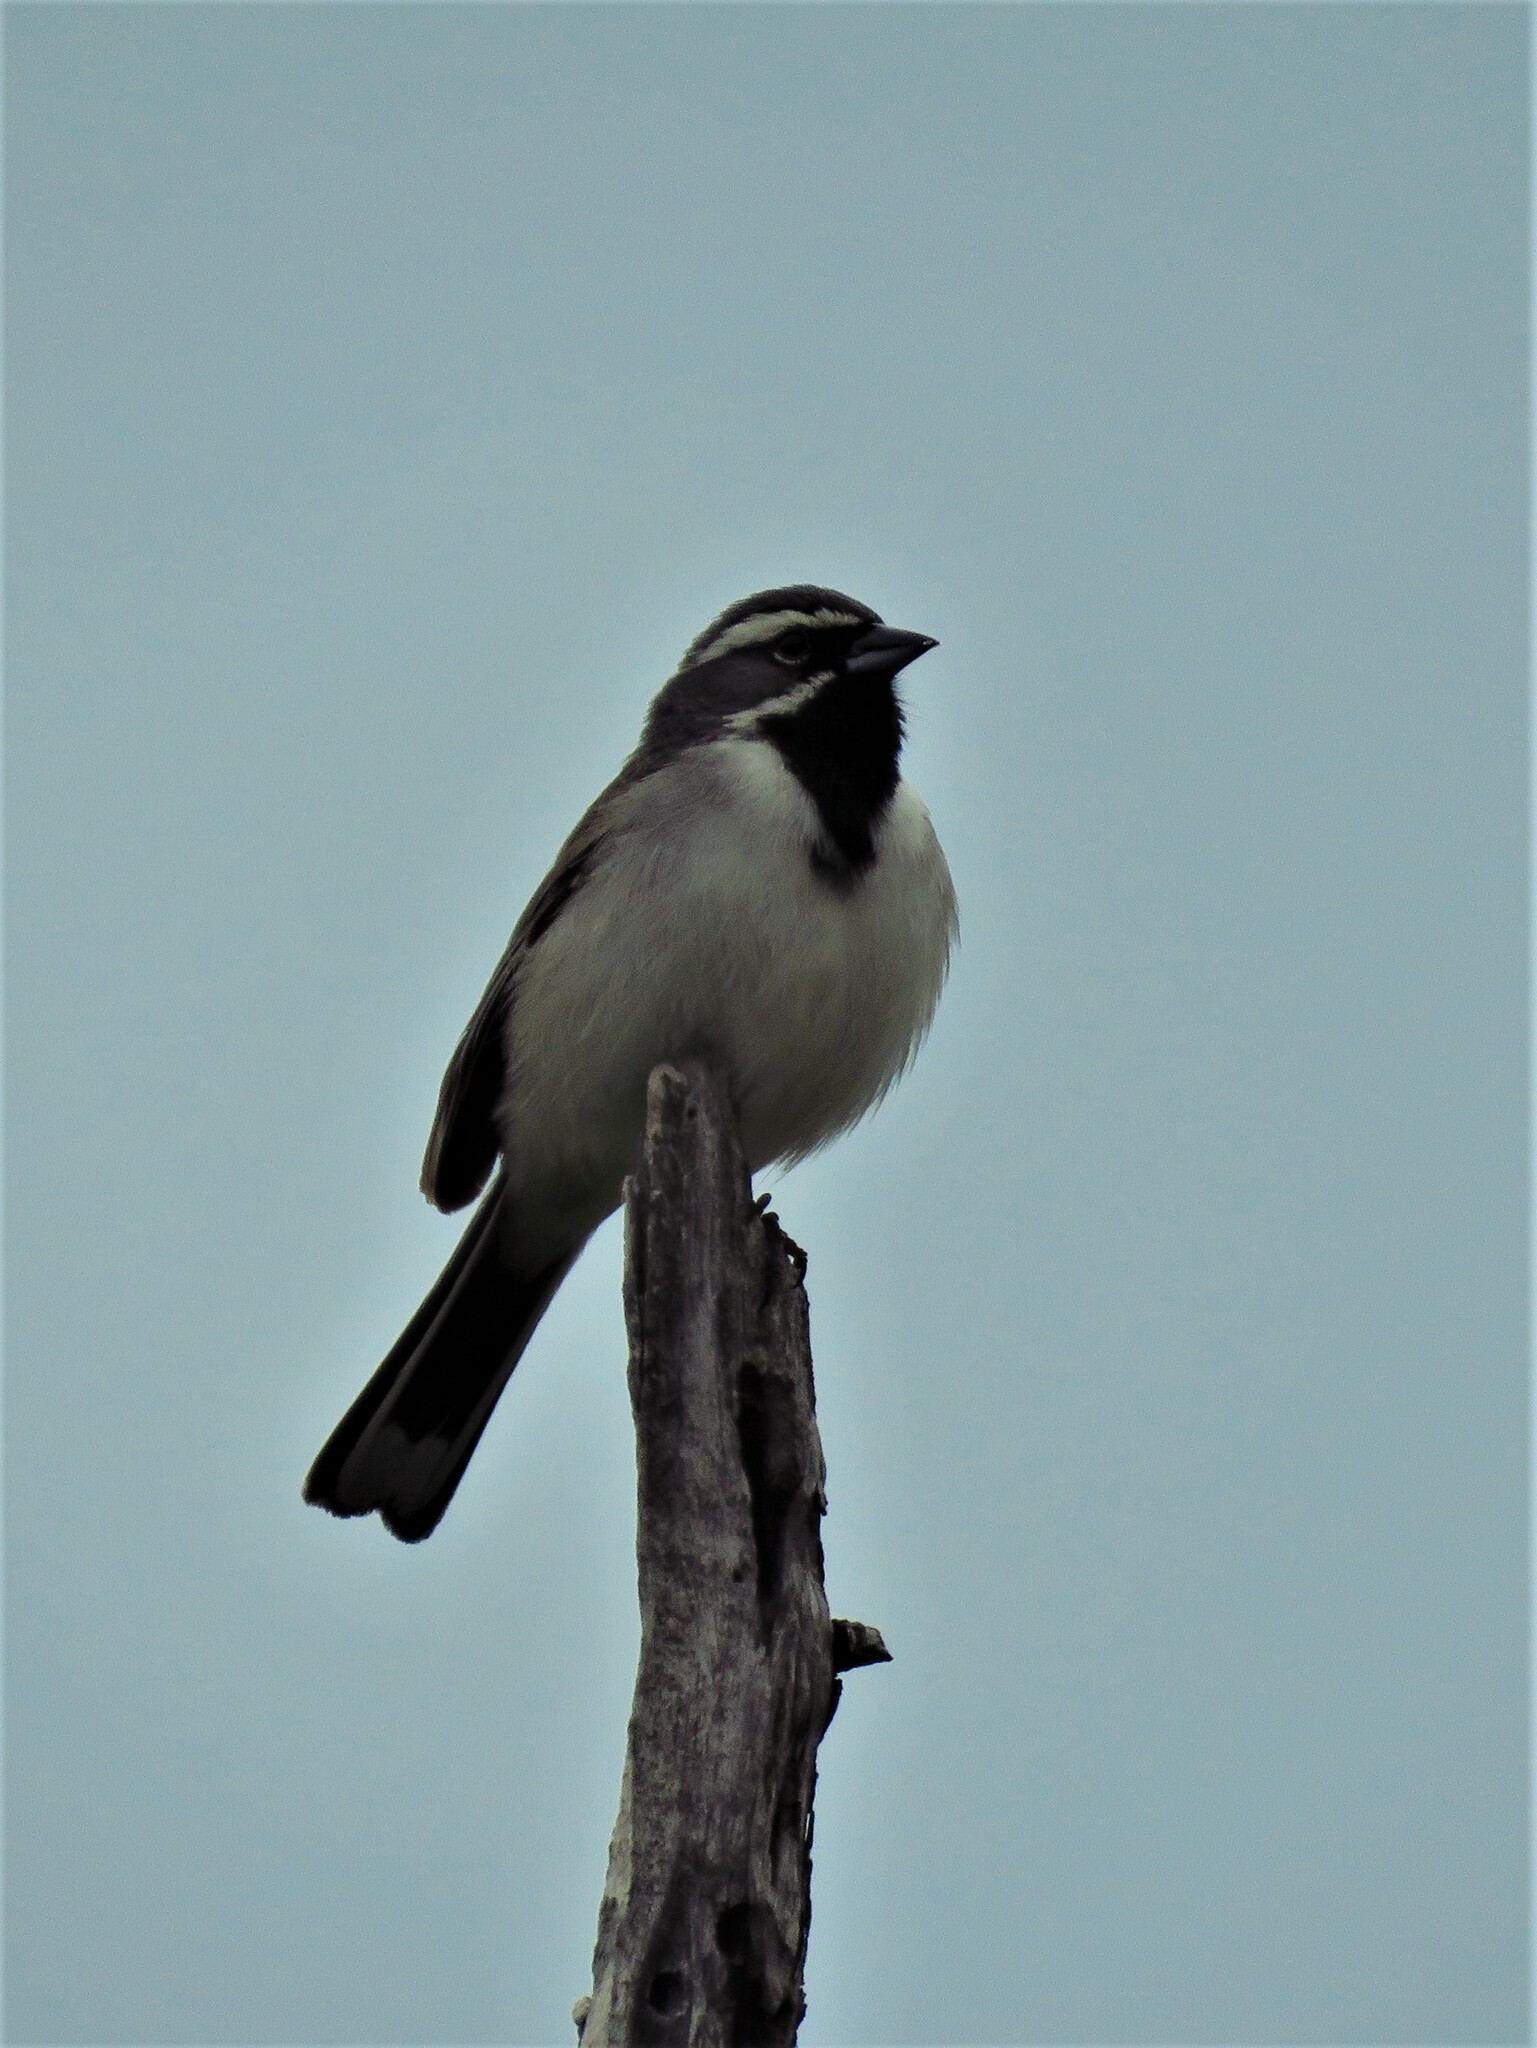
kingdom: Animalia
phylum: Chordata
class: Aves
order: Passeriformes
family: Passerellidae
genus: Amphispiza
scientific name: Amphispiza bilineata
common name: Black-throated sparrow
